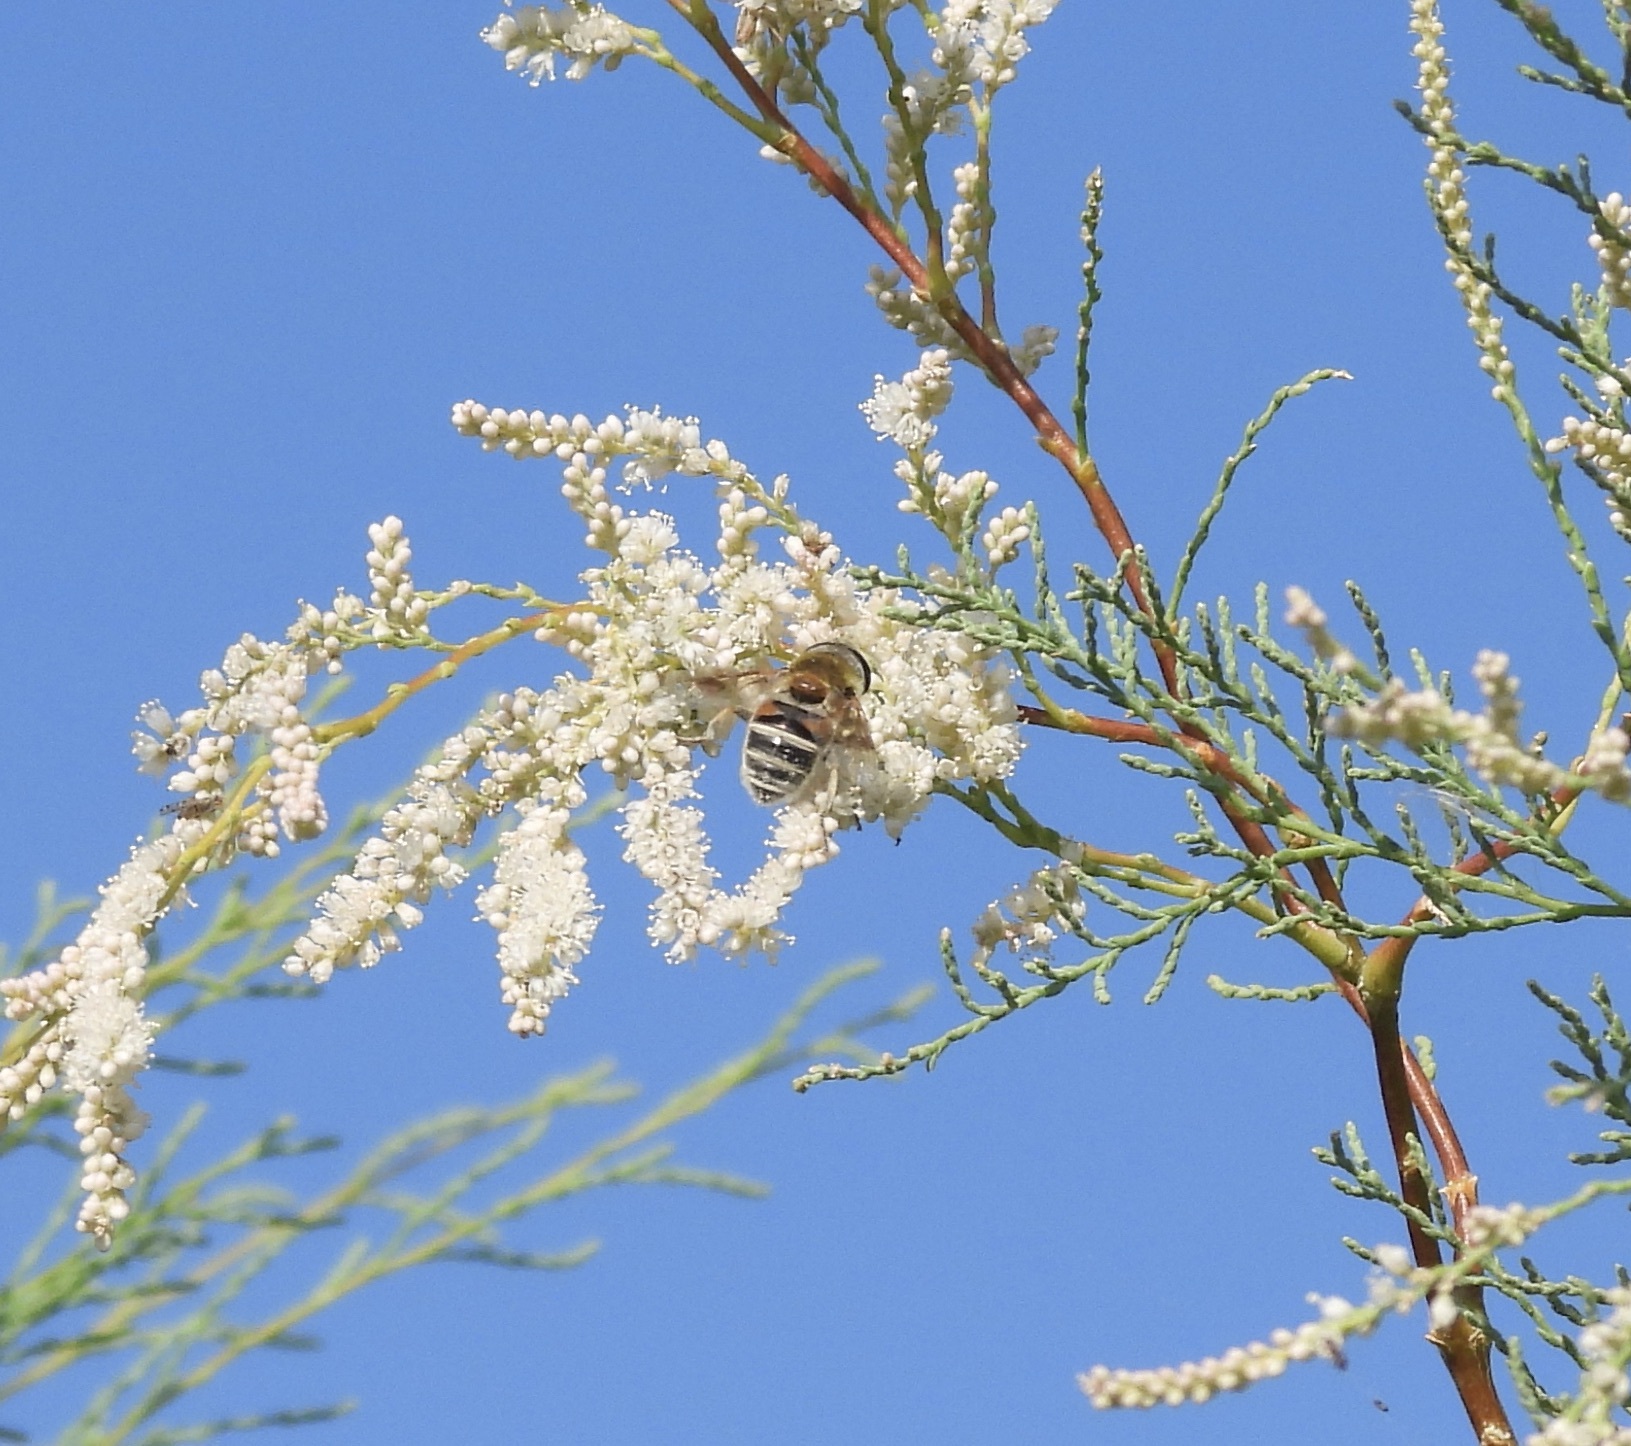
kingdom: Animalia
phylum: Arthropoda
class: Insecta
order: Diptera
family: Syrphidae
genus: Eristalis
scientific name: Eristalis stipator
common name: Yellow-shouldered drone fly
